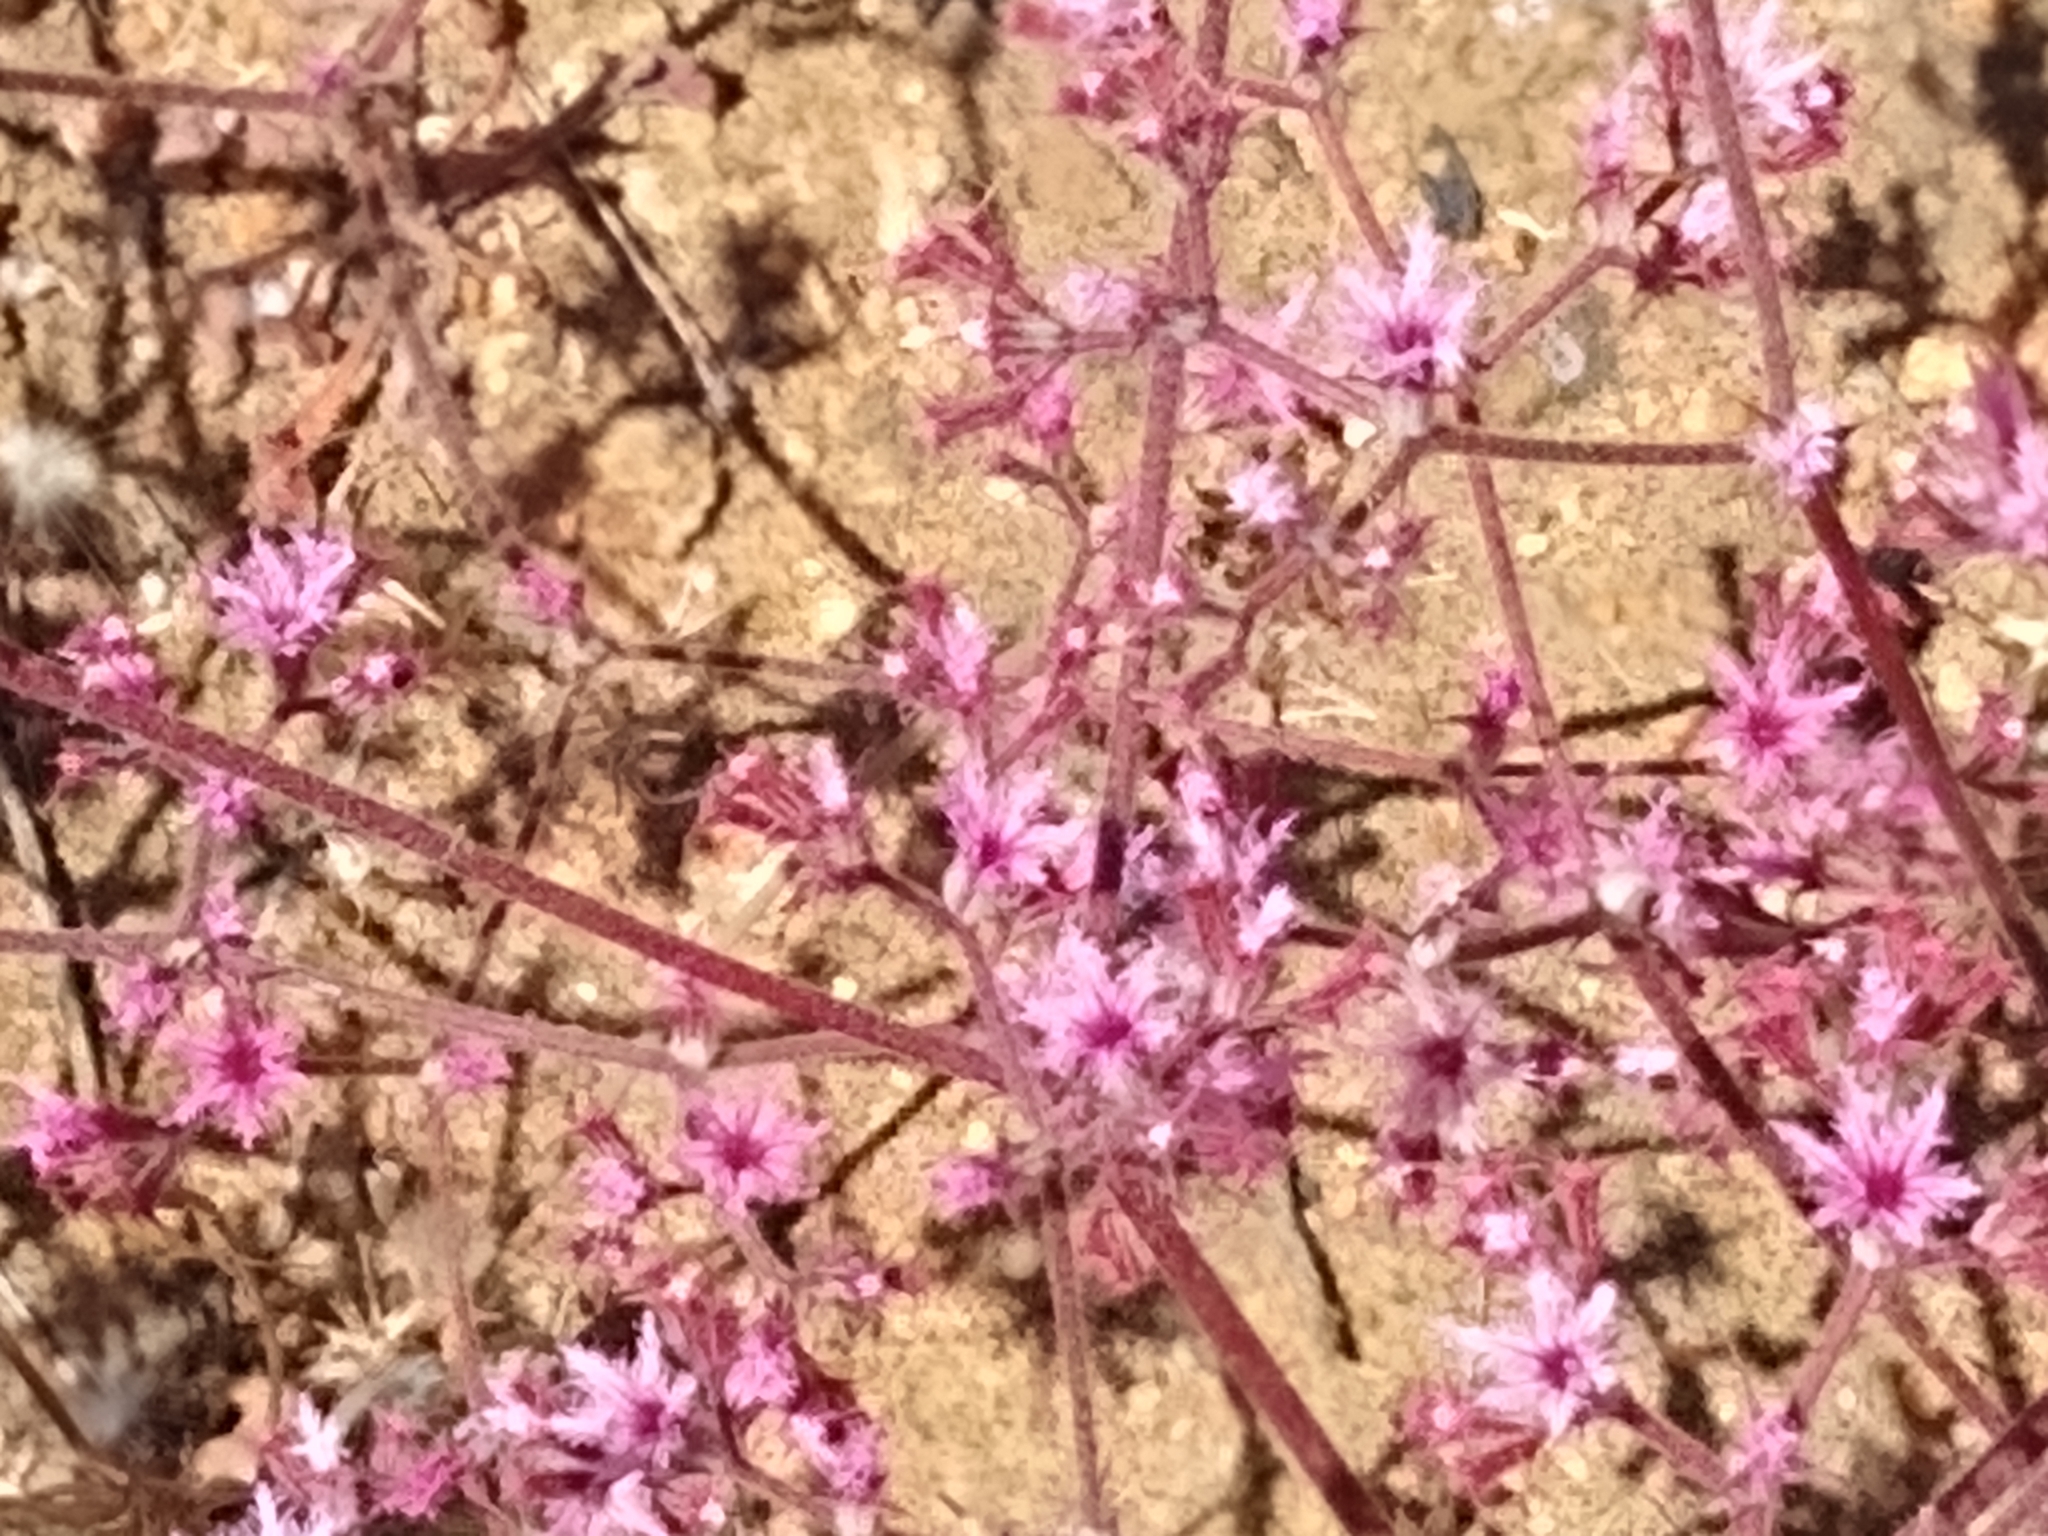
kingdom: Plantae
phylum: Tracheophyta
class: Magnoliopsida
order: Caryophyllales
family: Polygonaceae
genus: Chorizanthe
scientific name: Chorizanthe fimbriata
